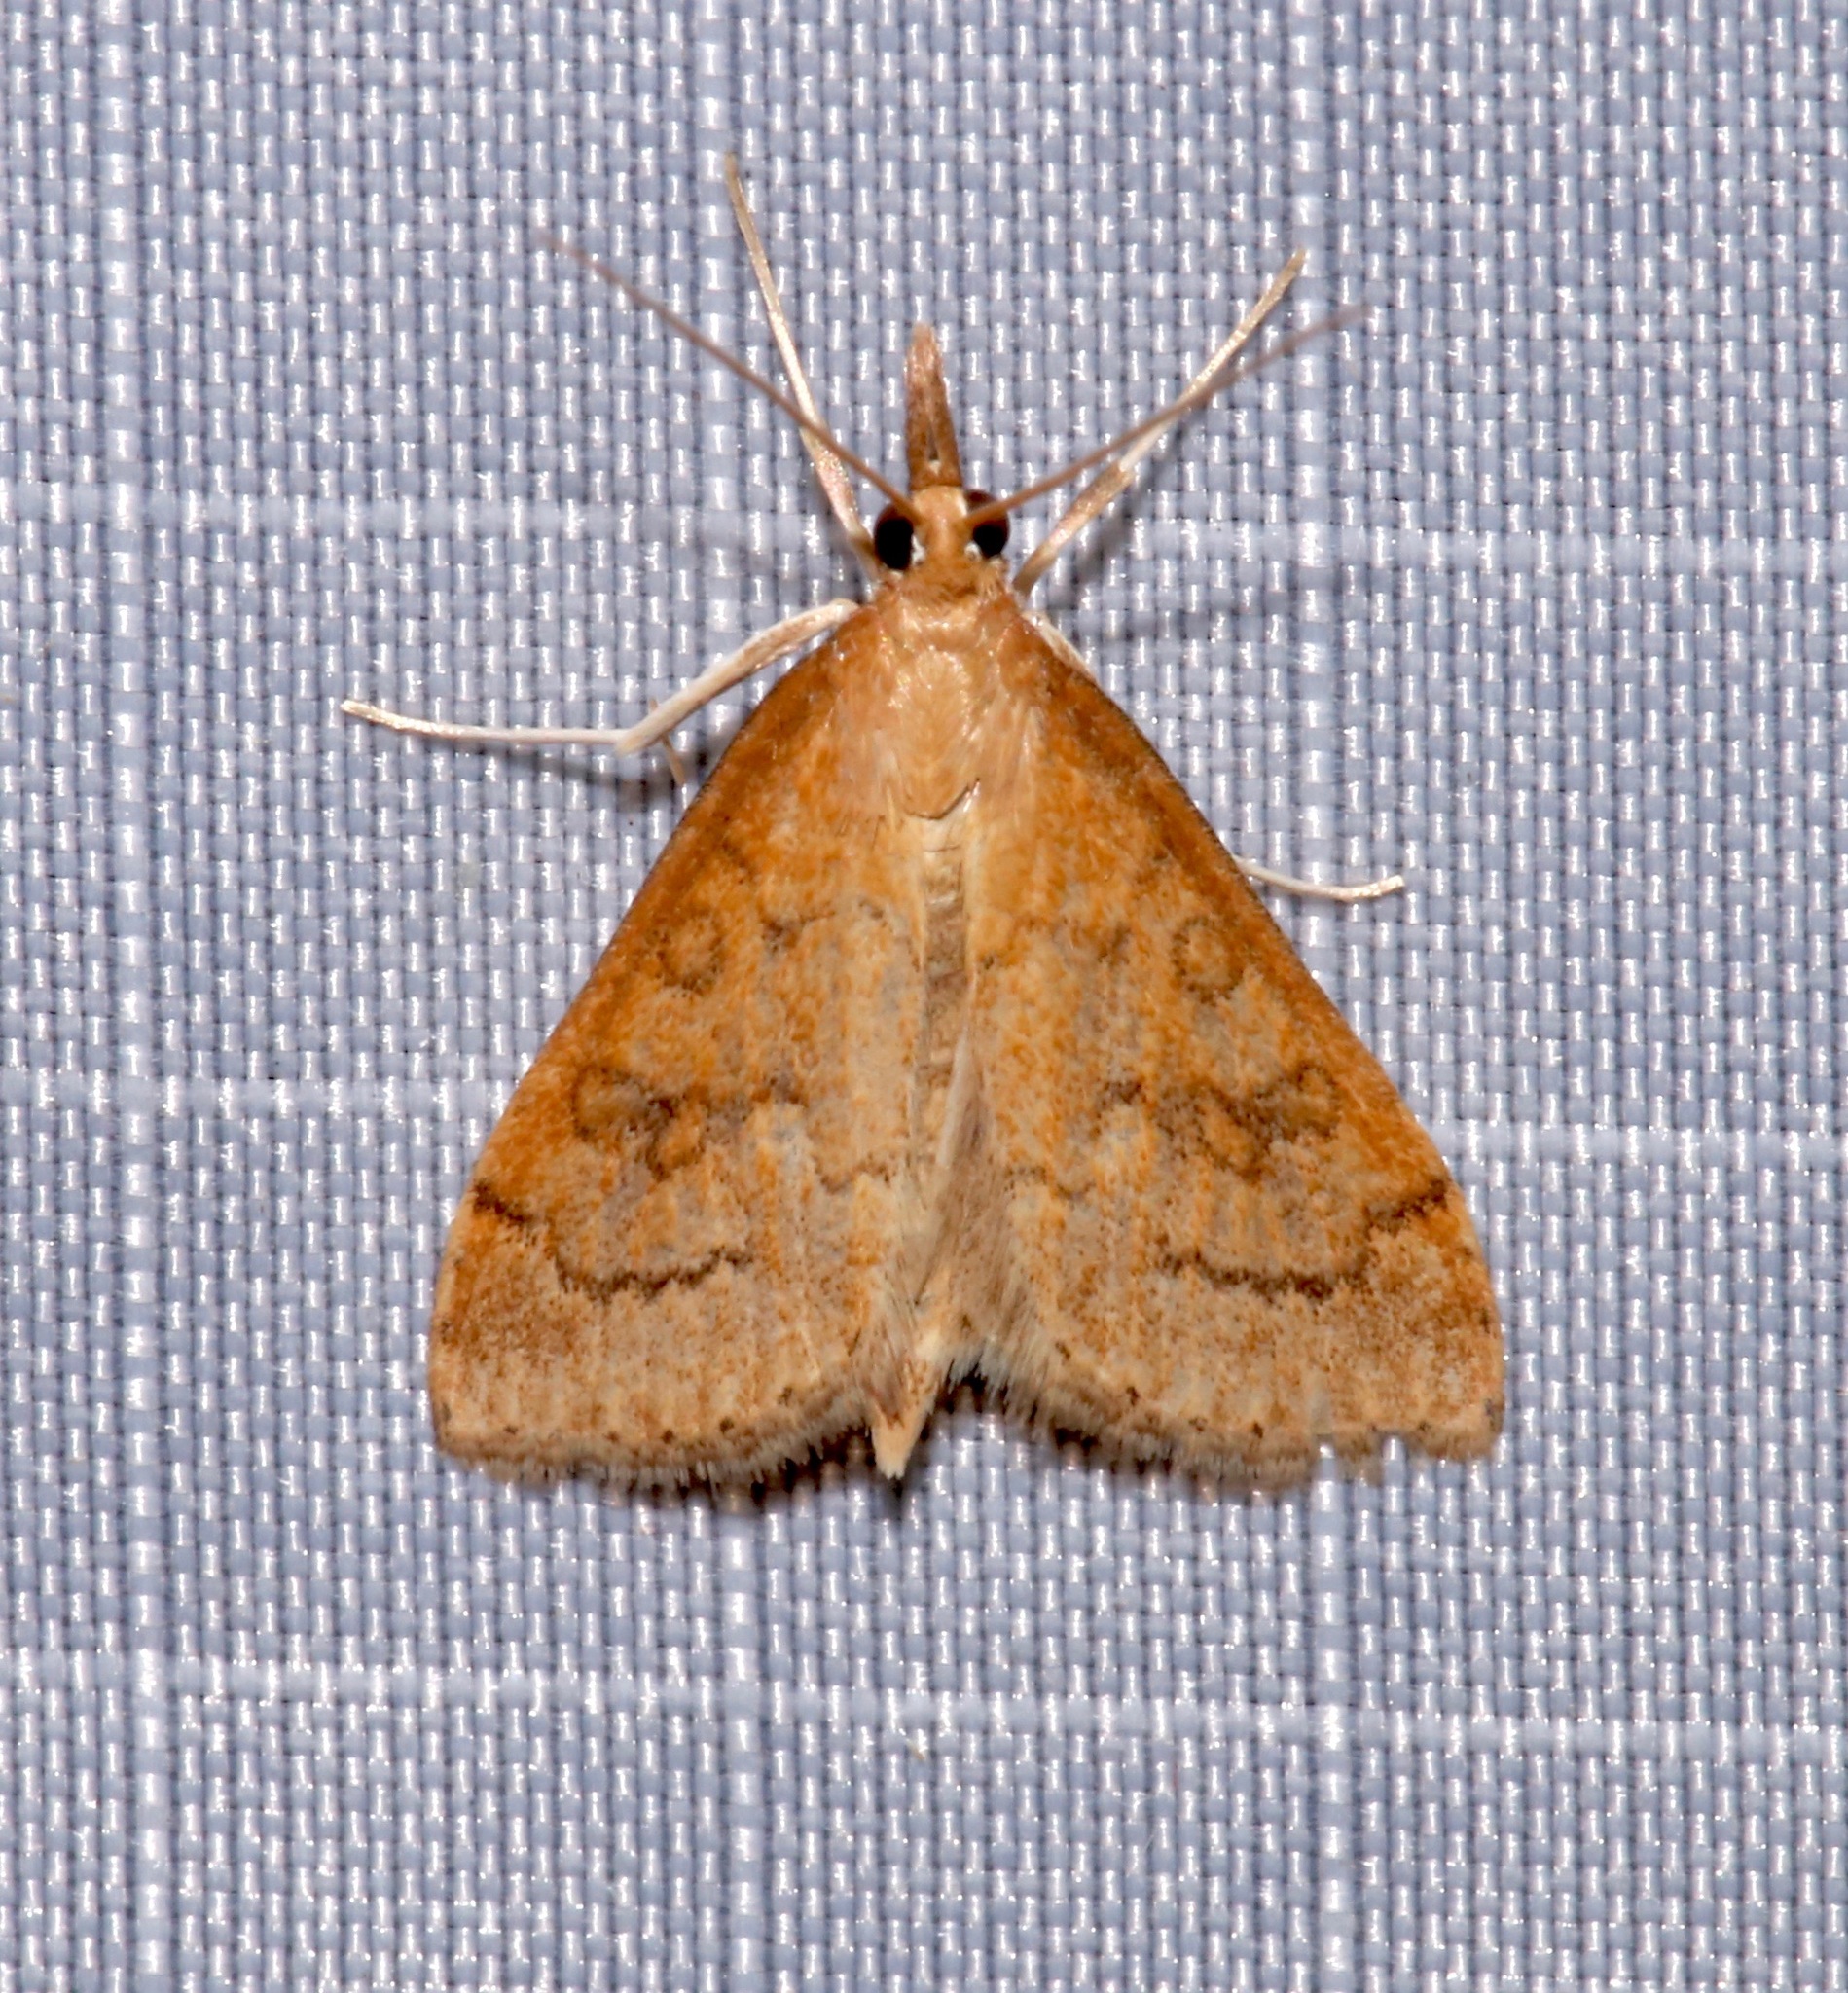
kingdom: Animalia
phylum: Arthropoda
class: Insecta
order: Lepidoptera
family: Crambidae
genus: Udea
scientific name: Udea rubigalis
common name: Celery leaftier moth
